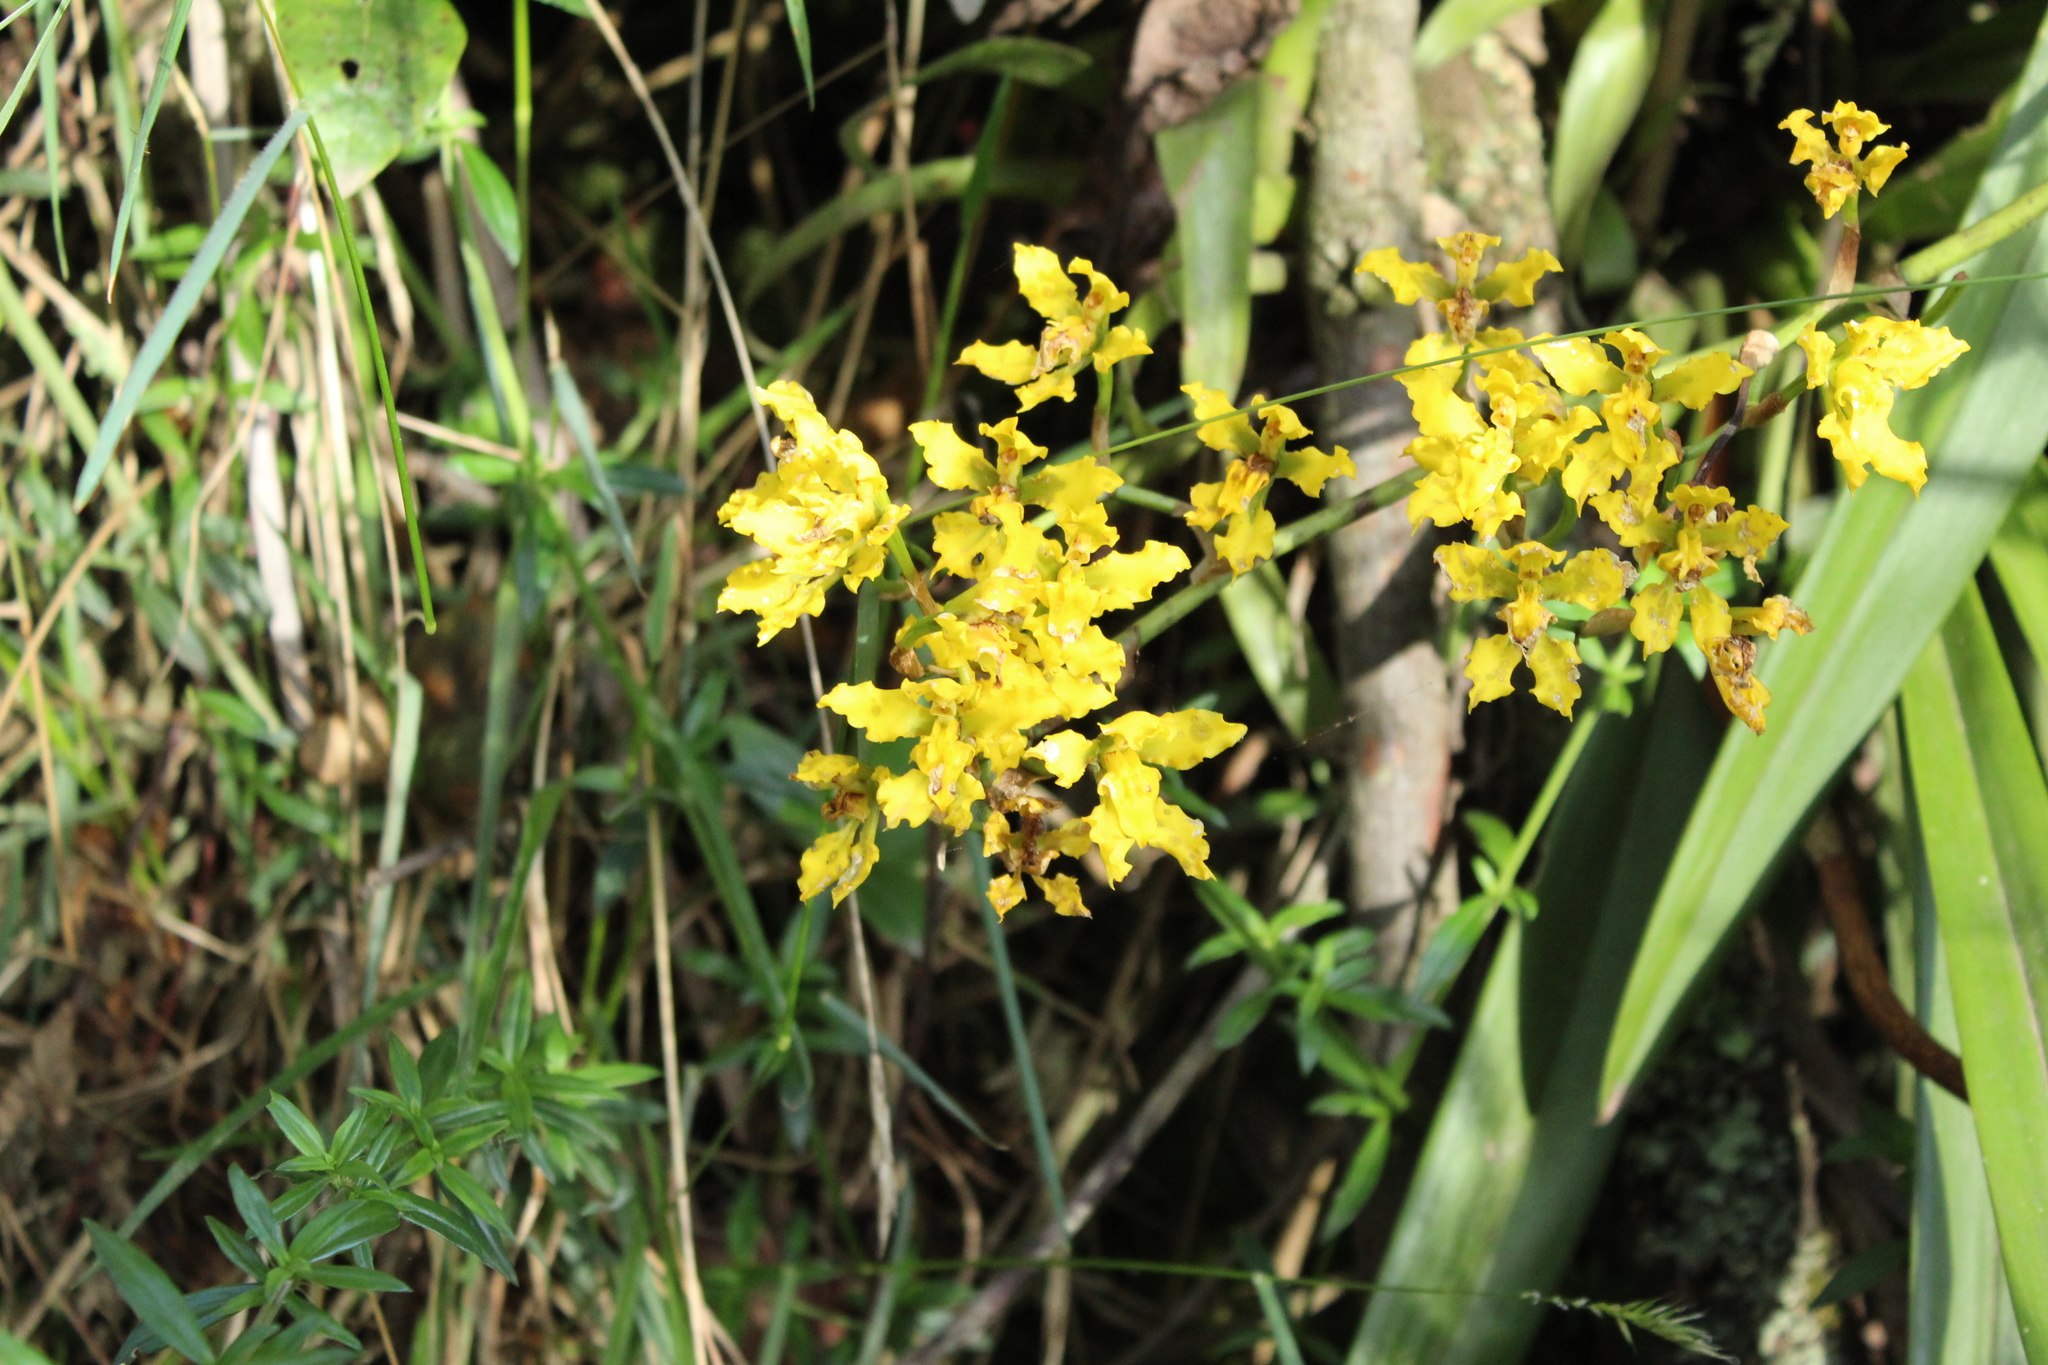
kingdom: Plantae
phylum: Tracheophyta
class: Liliopsida
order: Asparagales
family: Orchidaceae
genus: Cyrtochilum
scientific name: Cyrtochilum revolutum
